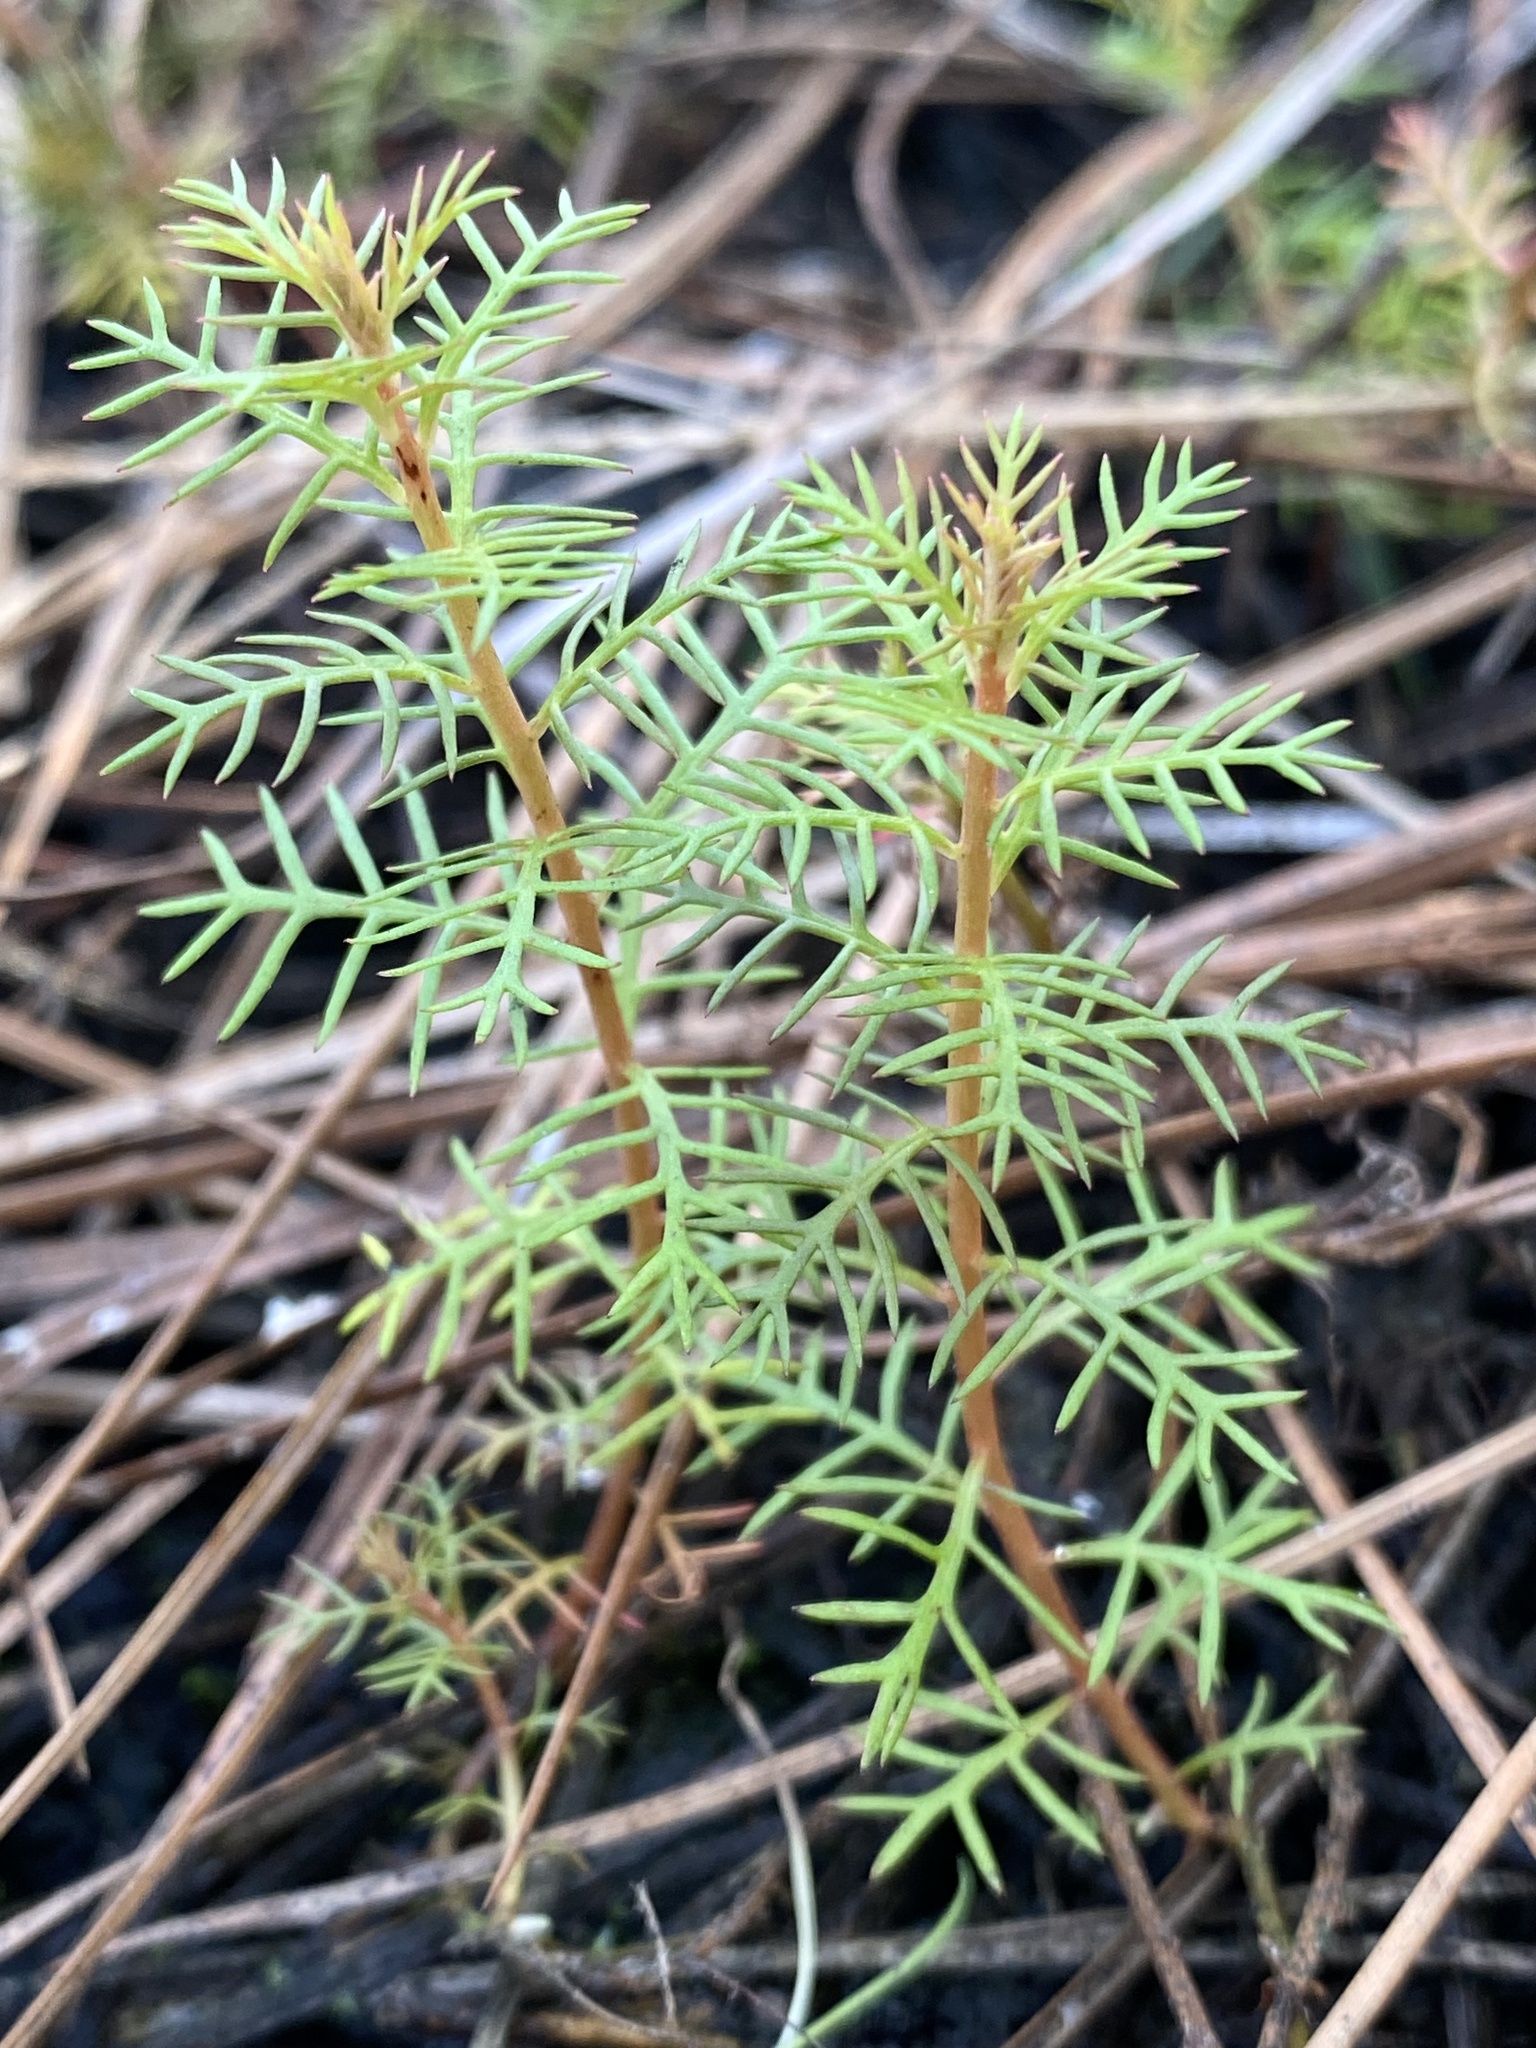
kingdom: Plantae
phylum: Tracheophyta
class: Magnoliopsida
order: Saxifragales
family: Haloragaceae
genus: Proserpinaca
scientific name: Proserpinaca pectinata
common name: Comb-leaved mermaidweed
